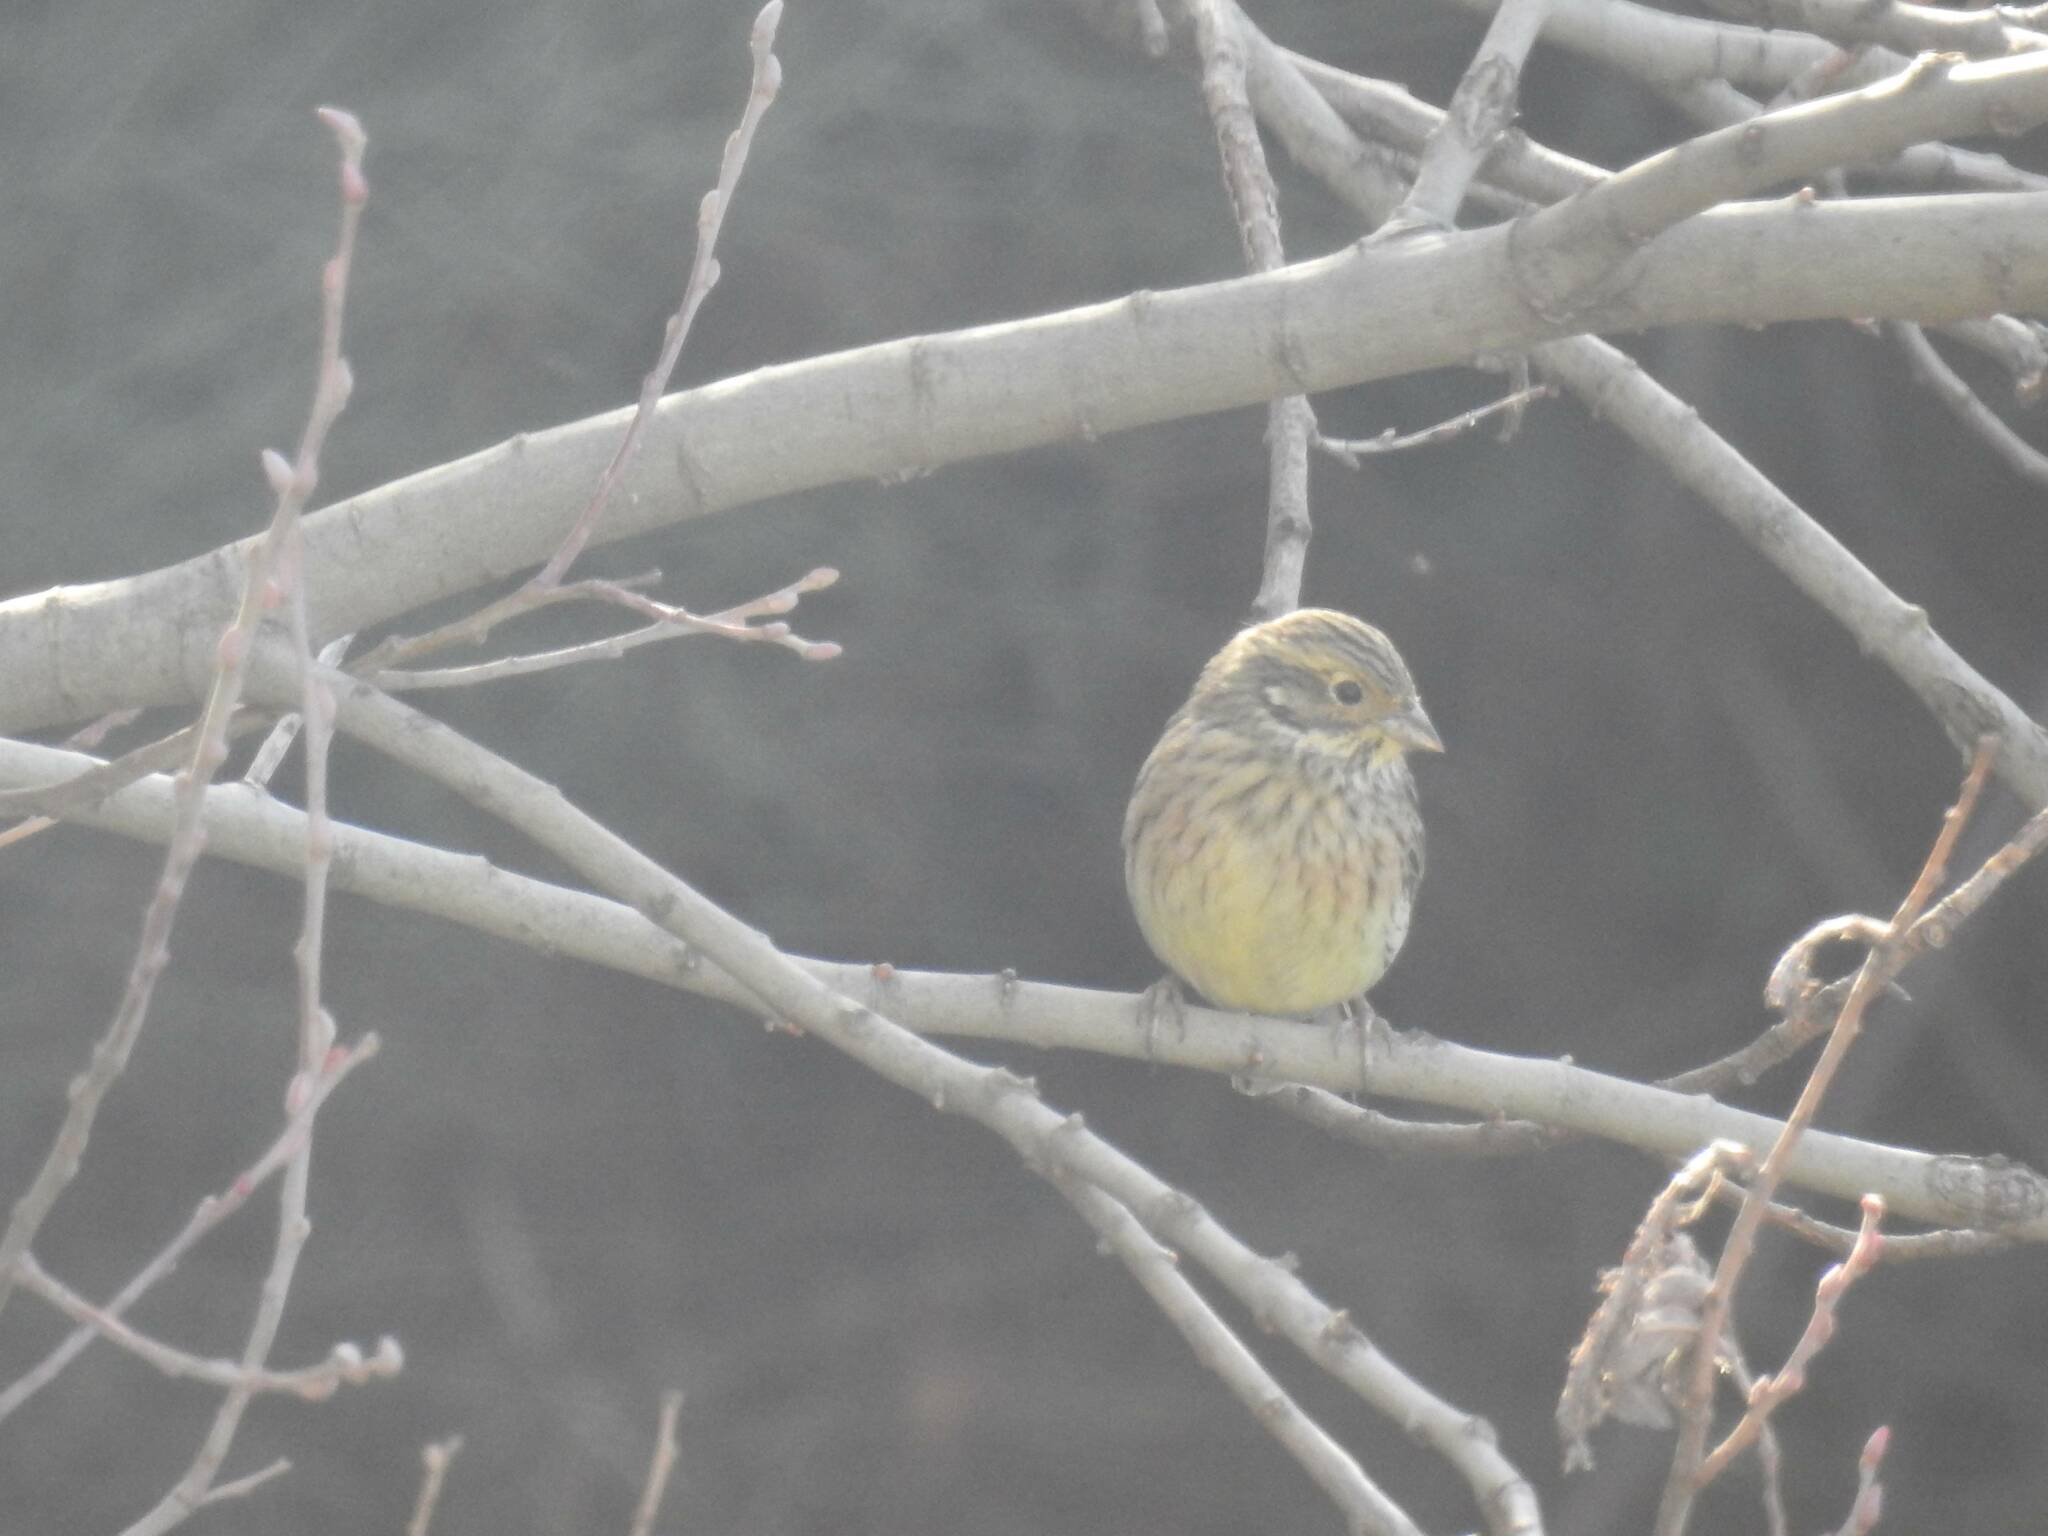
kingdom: Animalia
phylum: Chordata
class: Aves
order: Passeriformes
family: Emberizidae
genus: Emberiza
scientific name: Emberiza cirlus
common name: Cirl bunting
